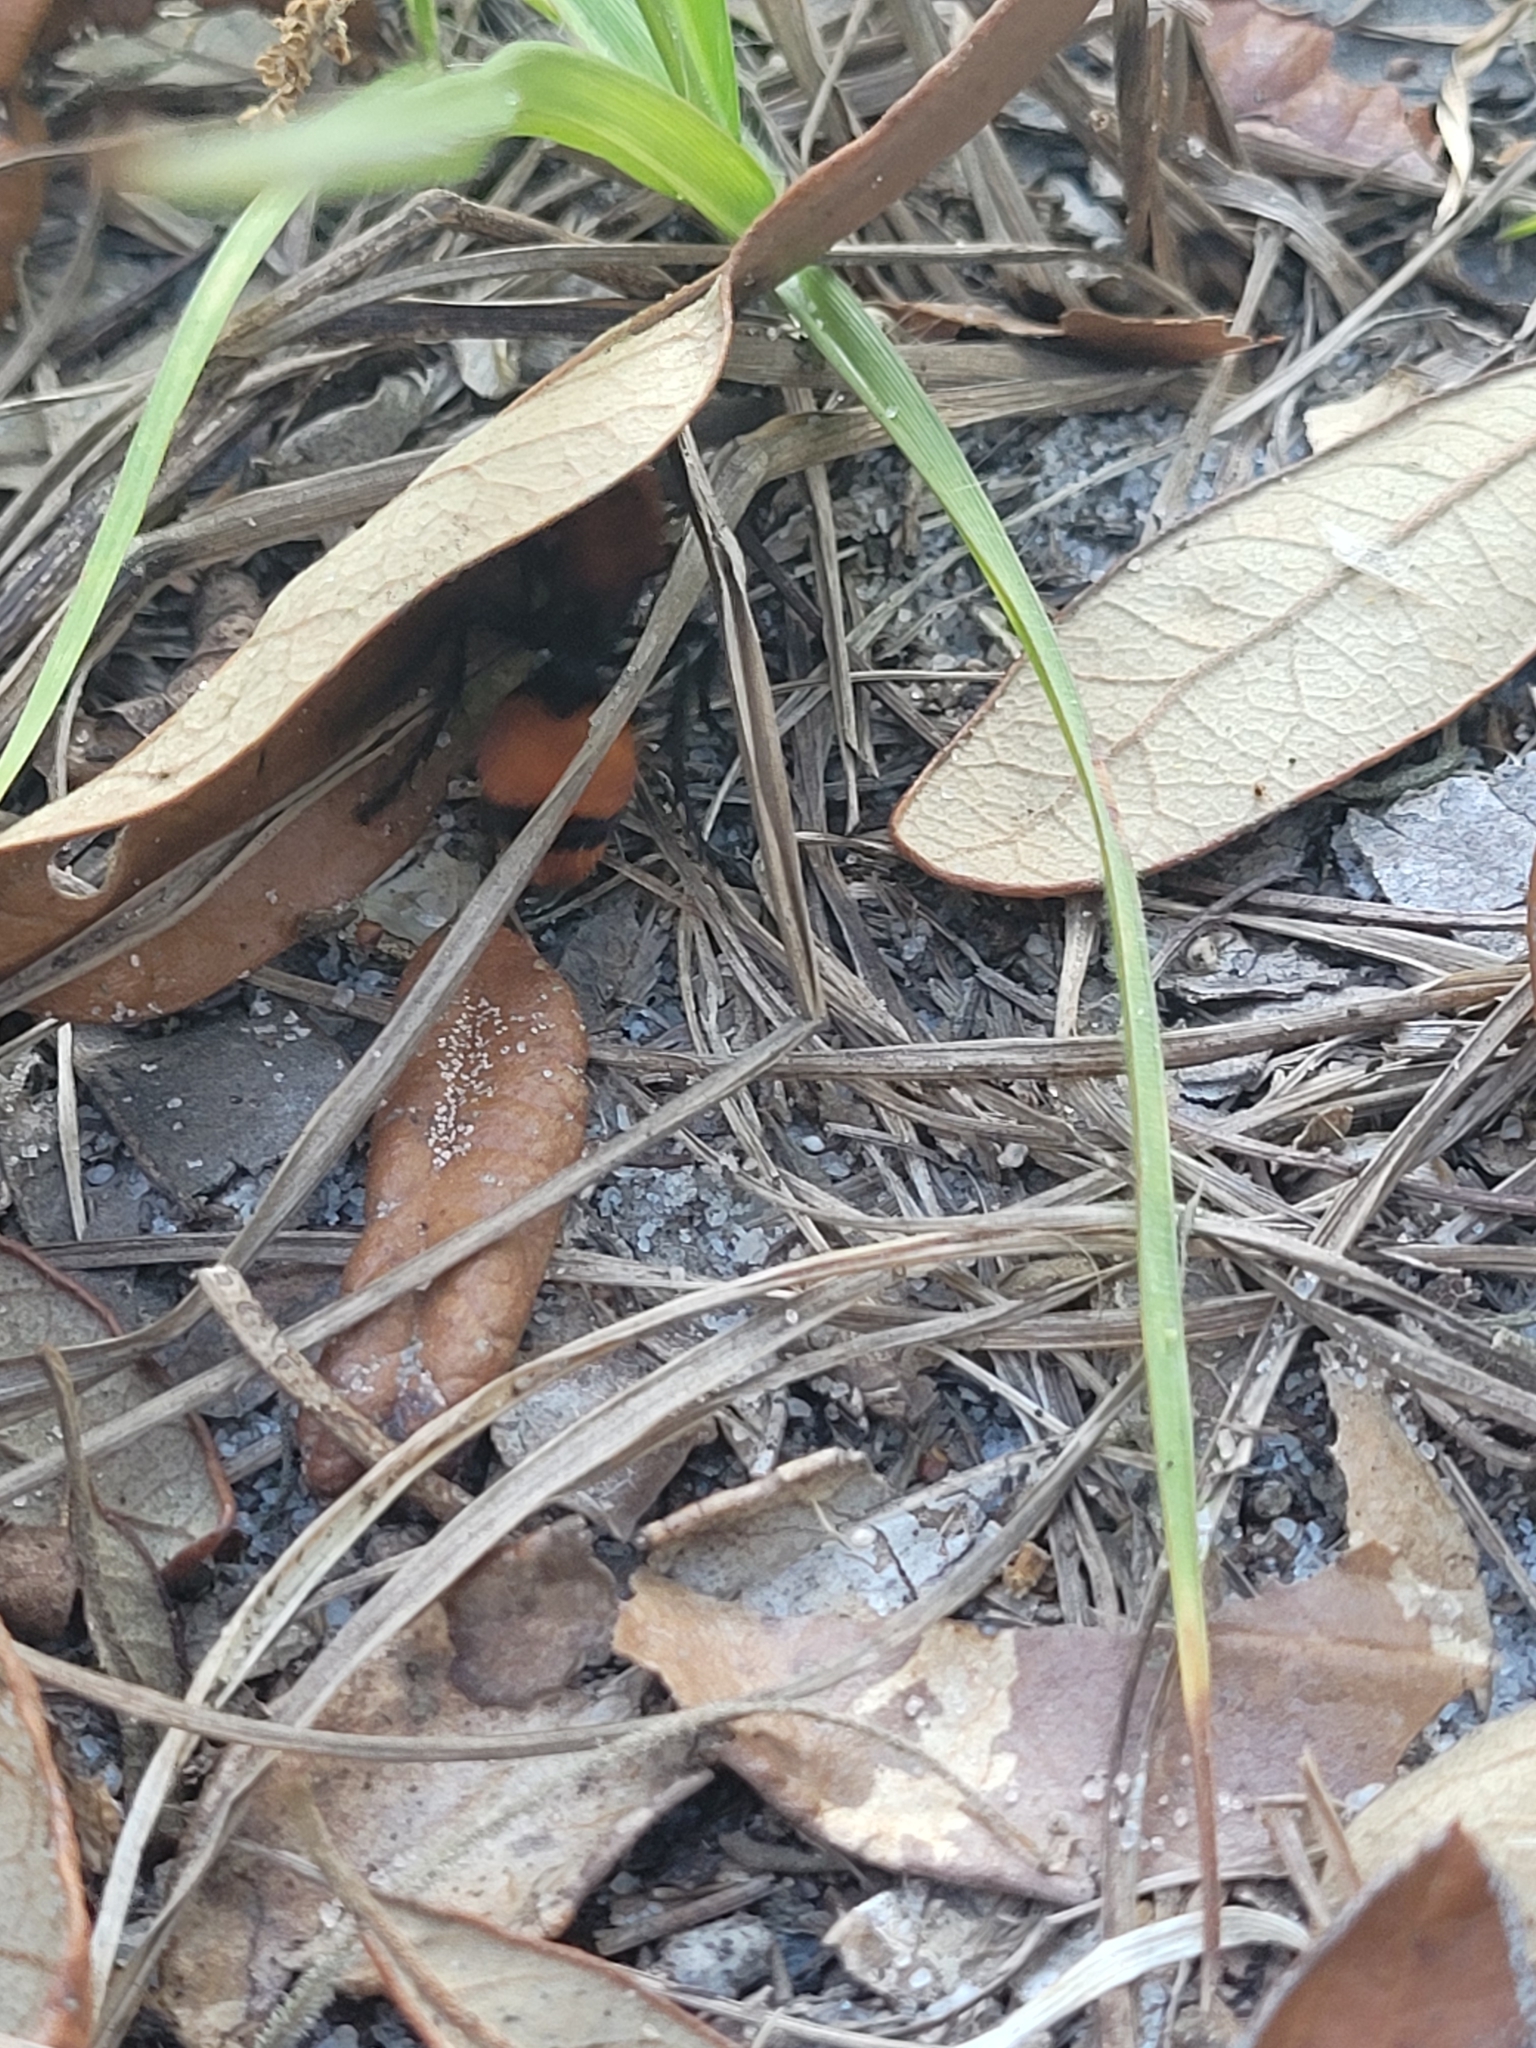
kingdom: Animalia
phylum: Arthropoda
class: Insecta
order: Hymenoptera
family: Mutillidae
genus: Dasymutilla
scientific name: Dasymutilla occidentalis
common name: Common eastern velvet ant
